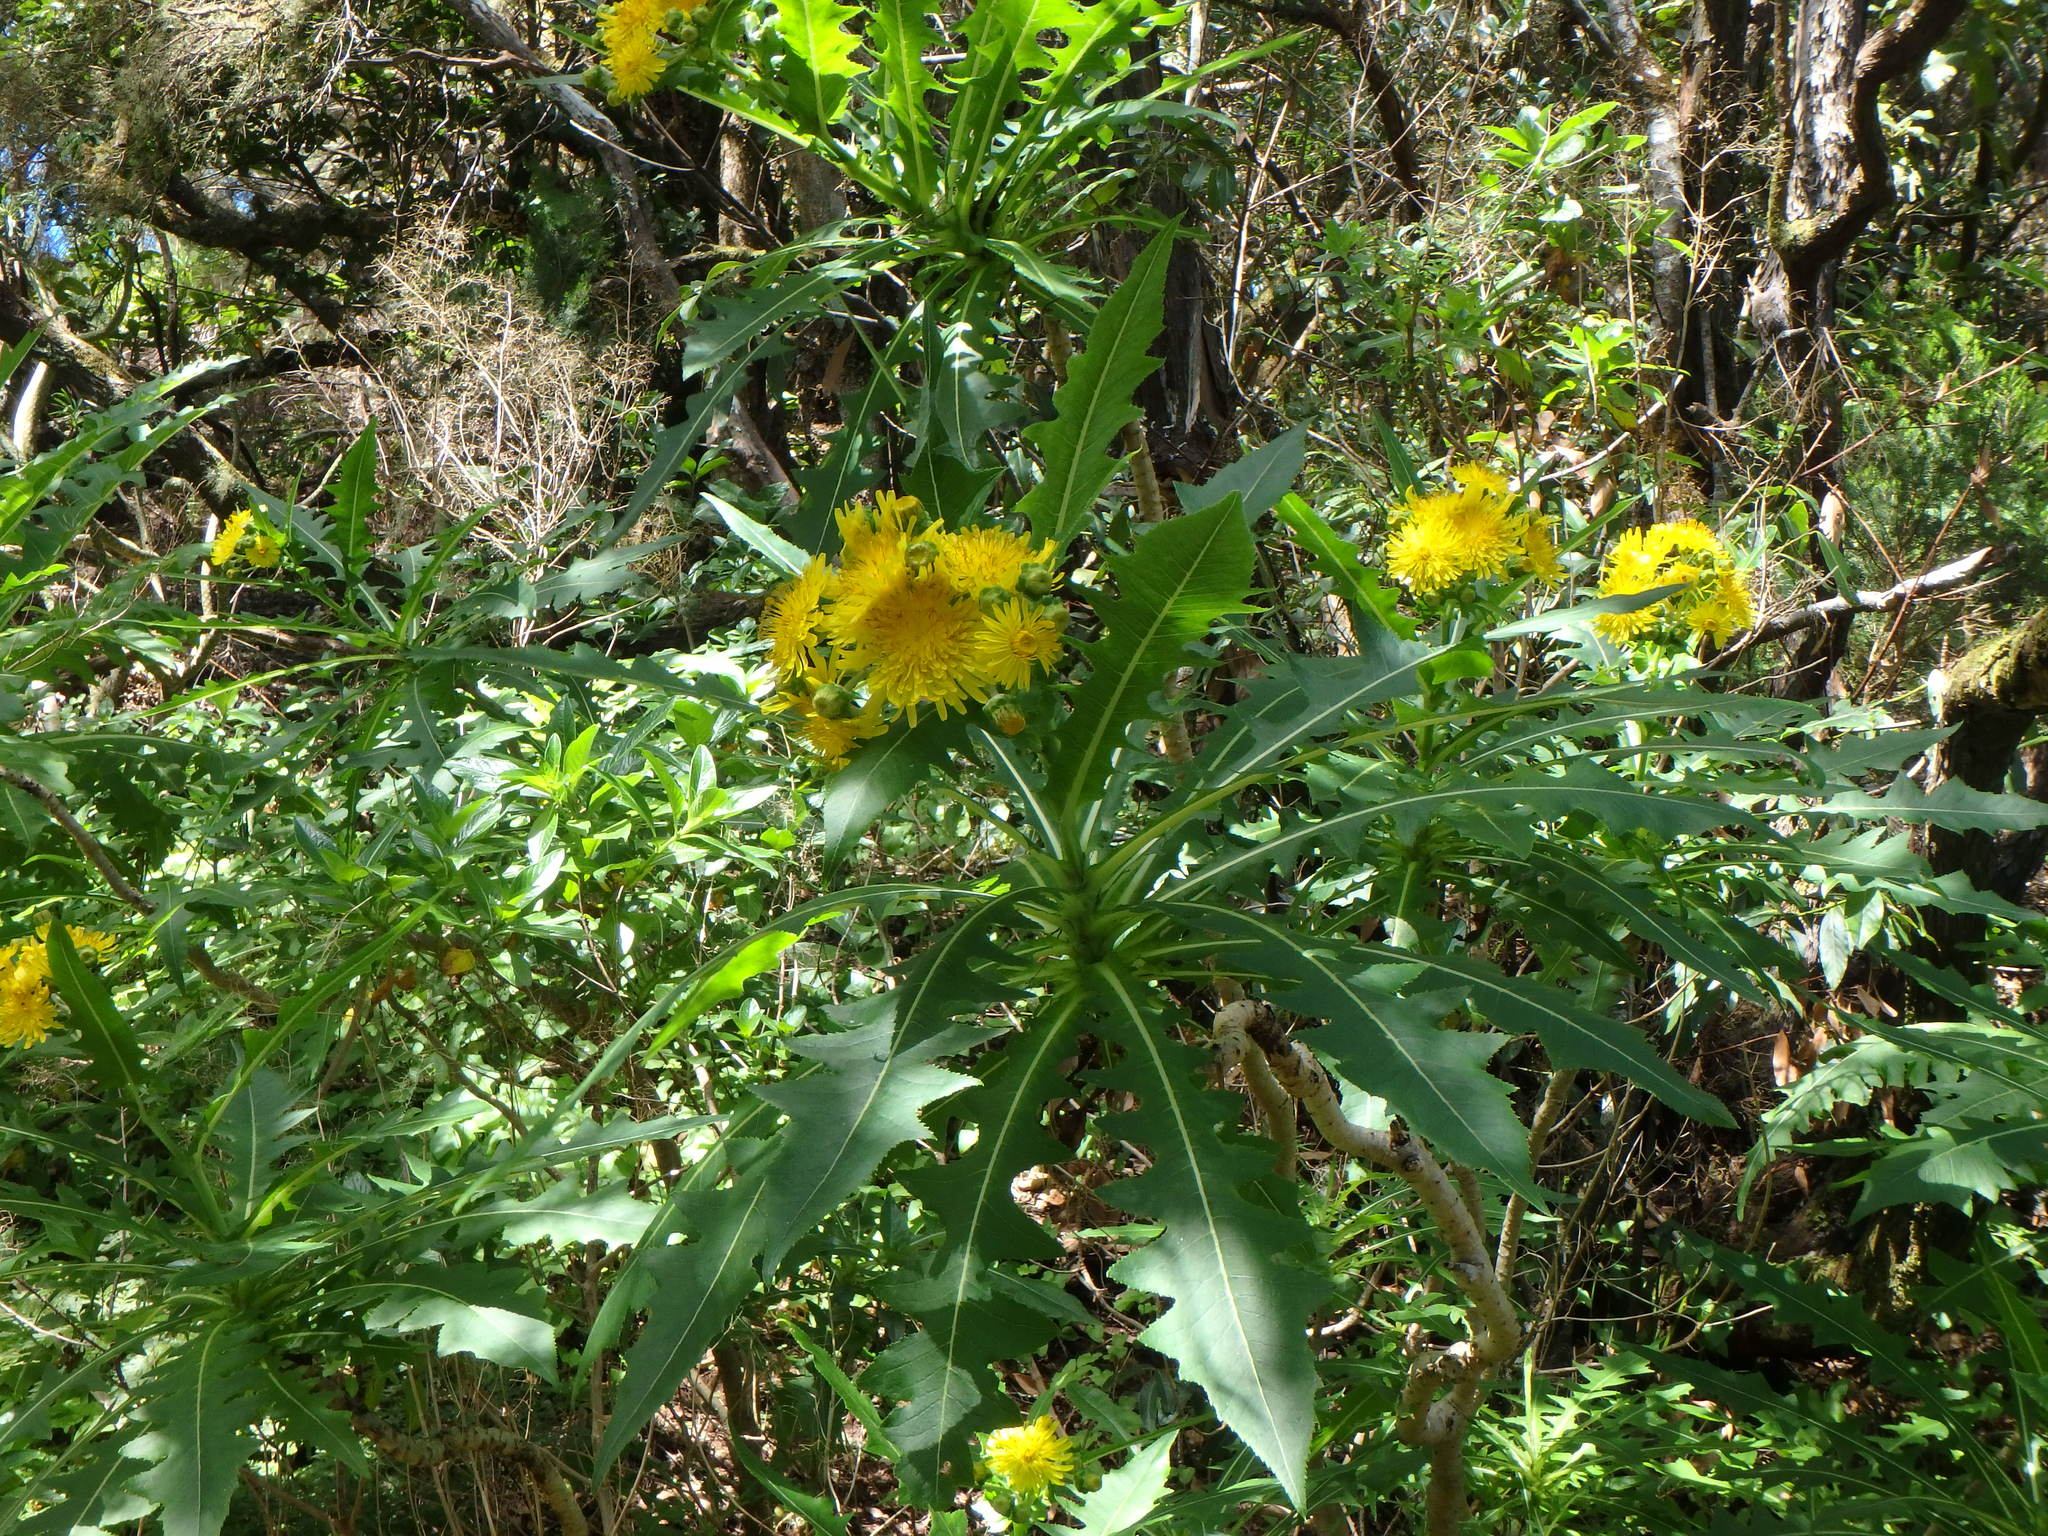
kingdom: Plantae
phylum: Tracheophyta
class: Magnoliopsida
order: Asterales
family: Asteraceae
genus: Sonchus
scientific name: Sonchus congestus
